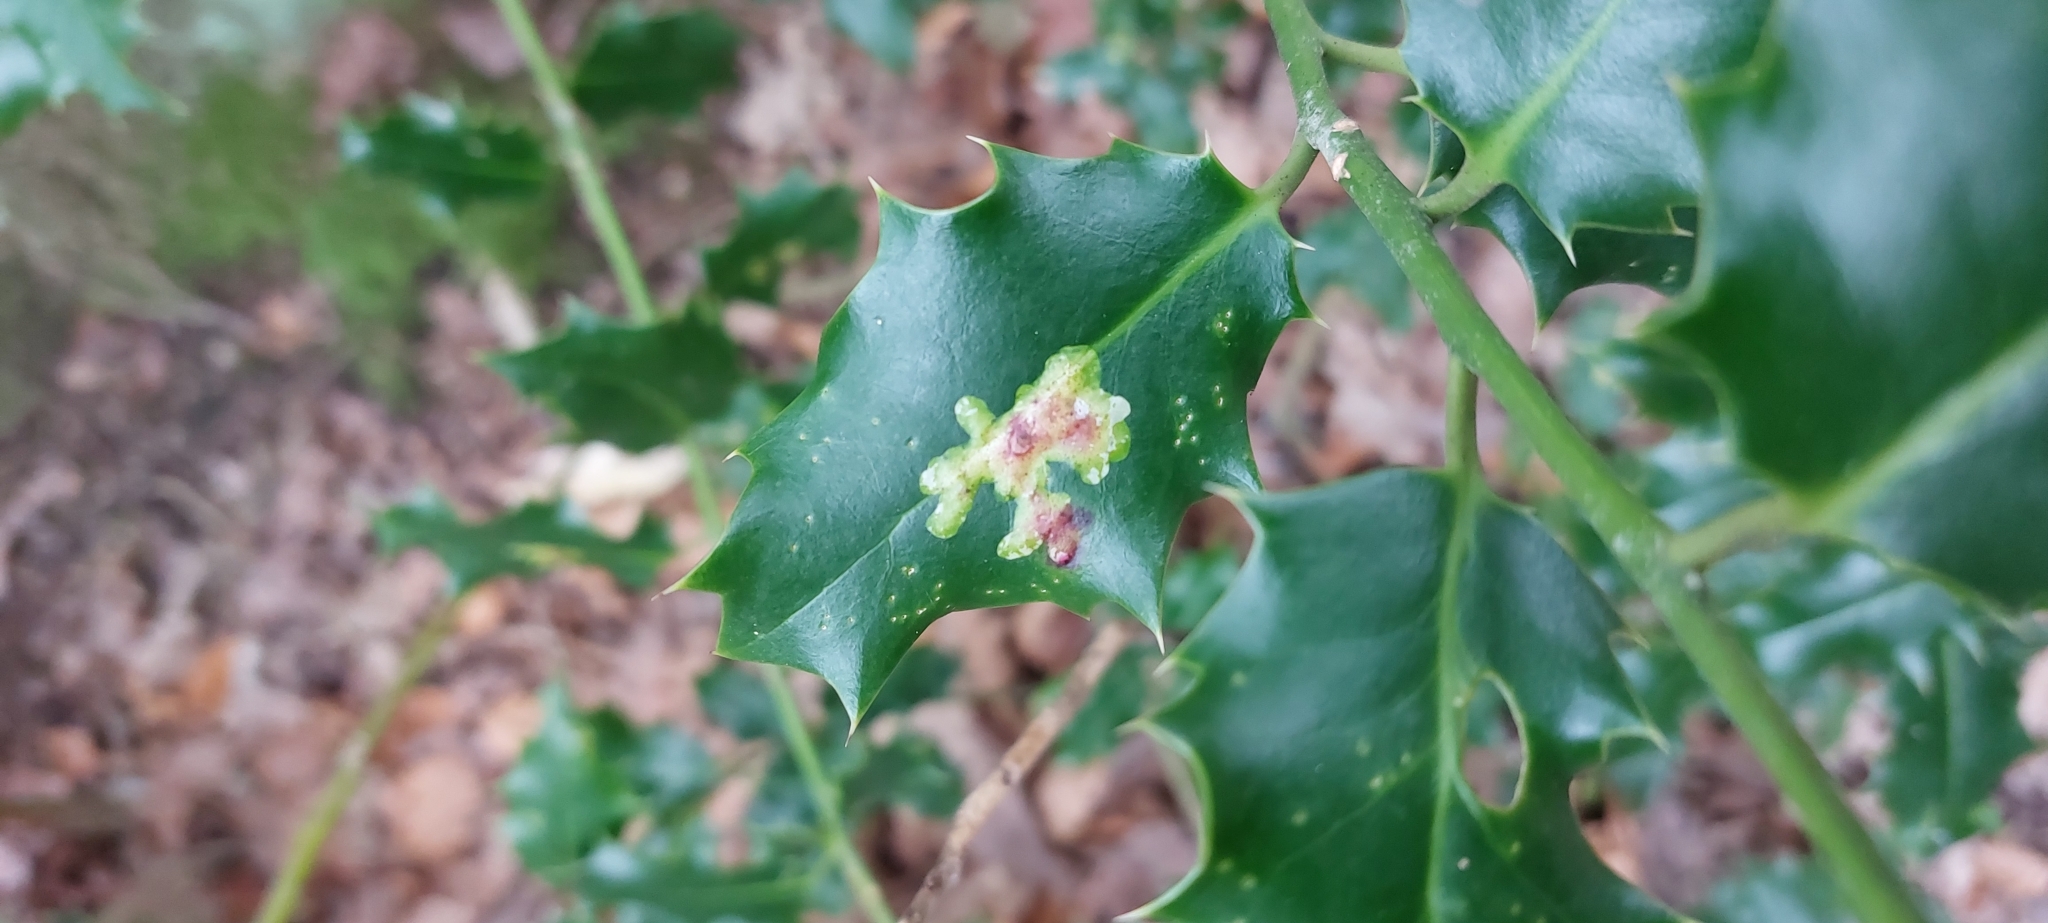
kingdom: Animalia
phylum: Arthropoda
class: Insecta
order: Diptera
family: Agromyzidae
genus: Phytomyza
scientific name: Phytomyza ilicis
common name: Holly leafminer
